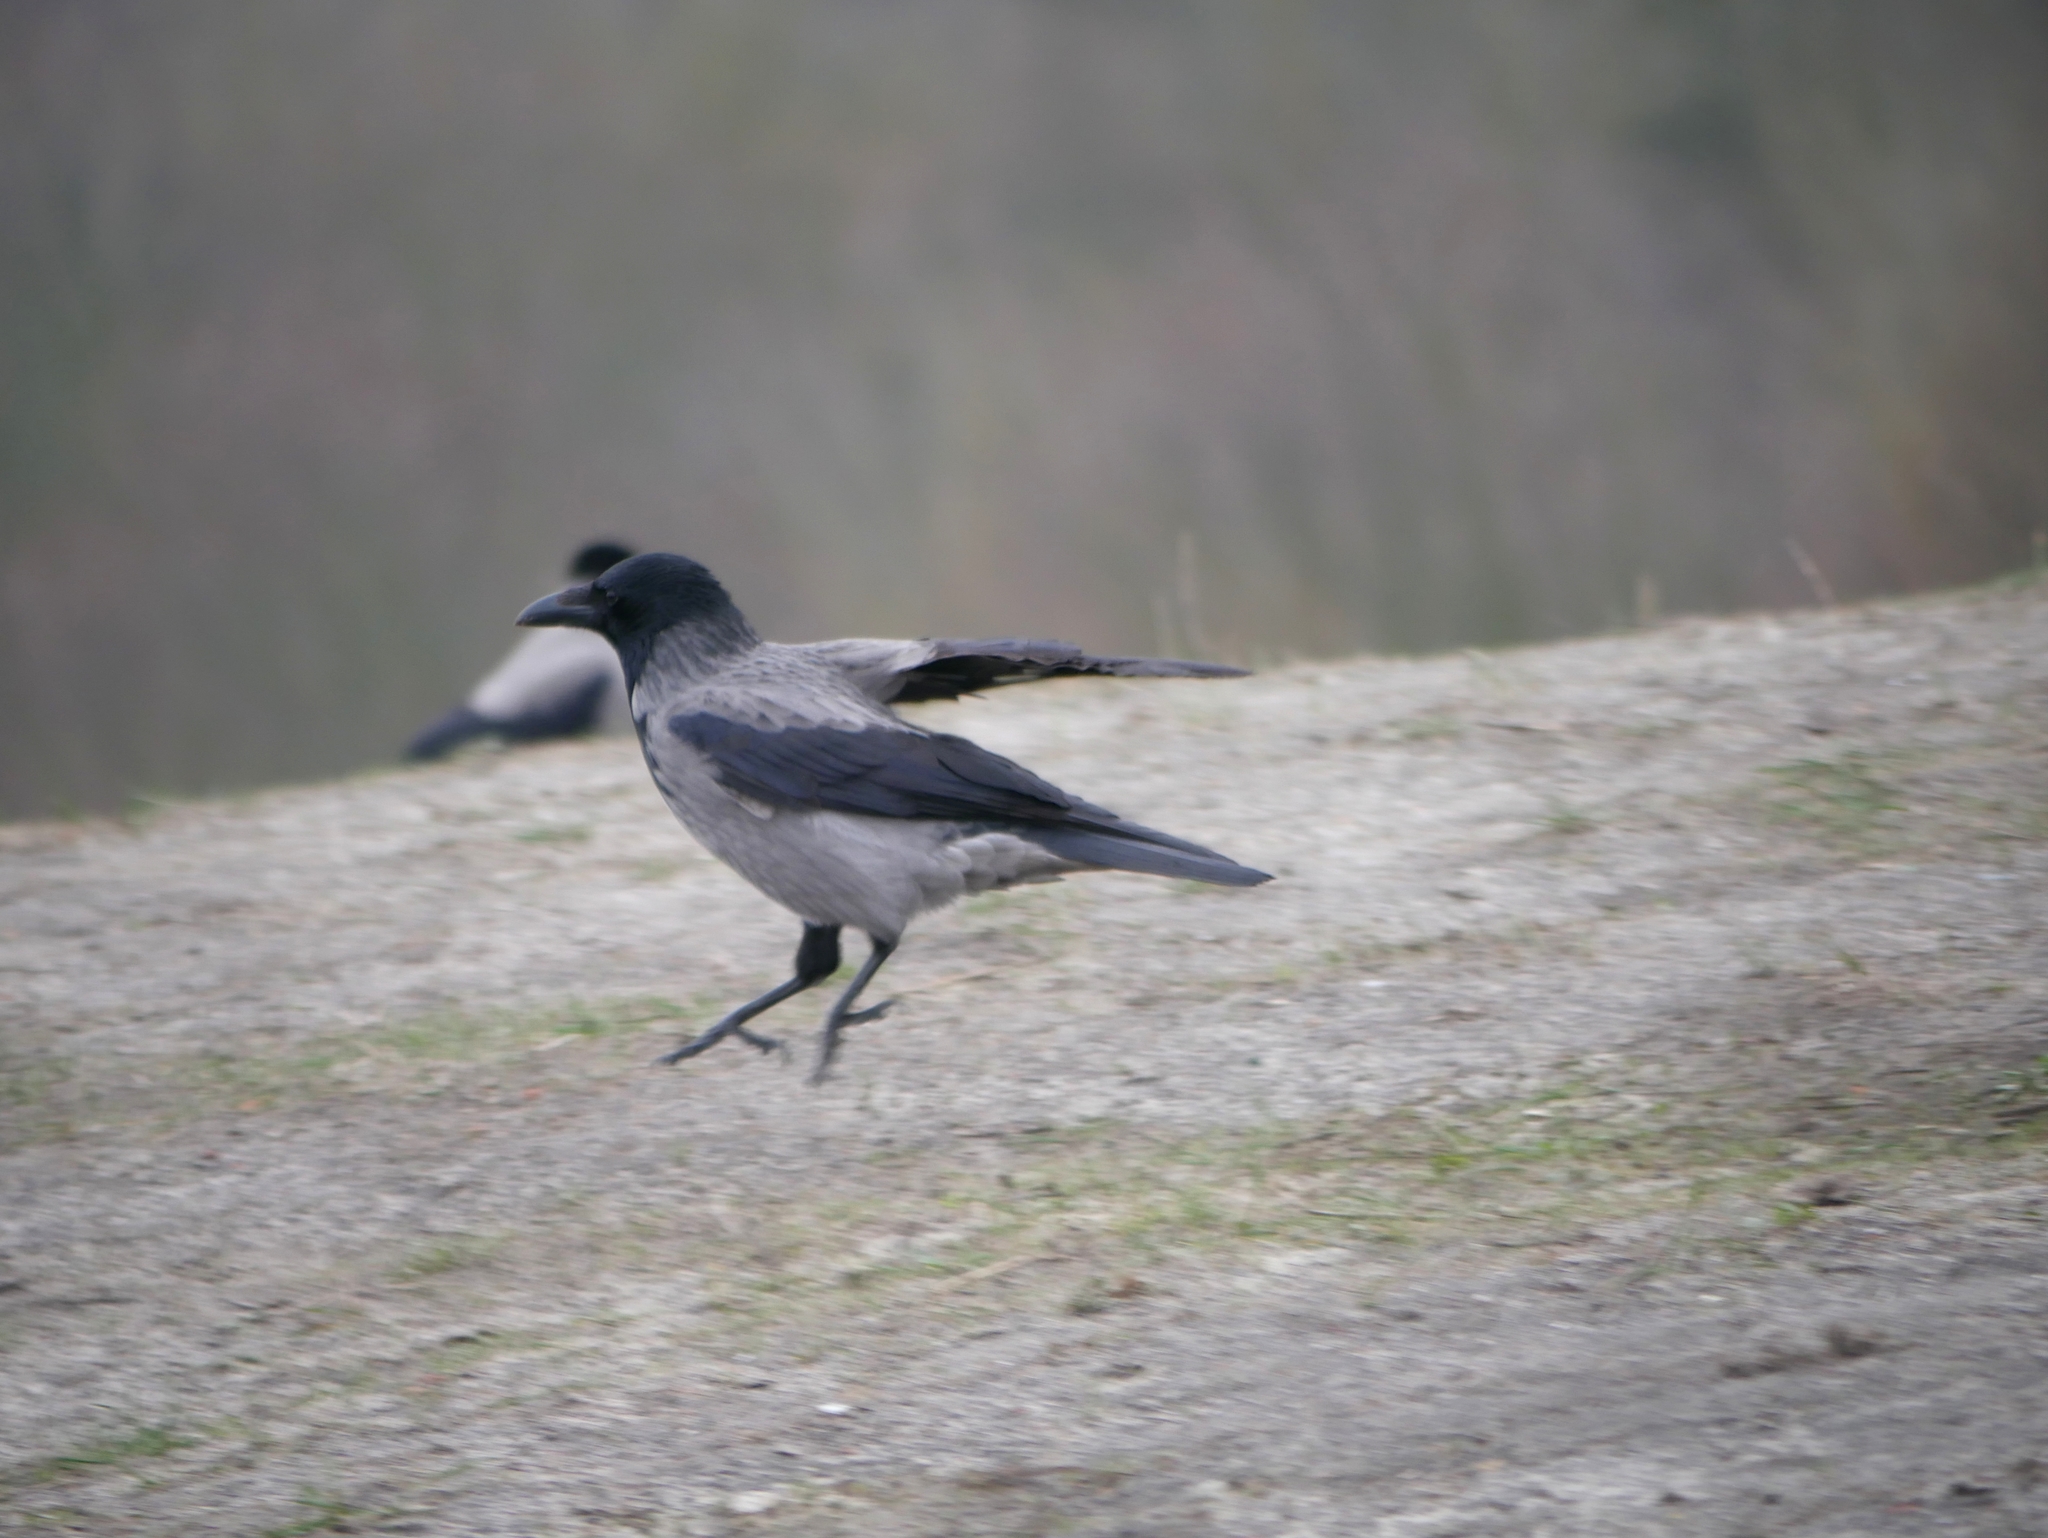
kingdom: Animalia
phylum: Chordata
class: Aves
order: Passeriformes
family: Corvidae
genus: Corvus
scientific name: Corvus
